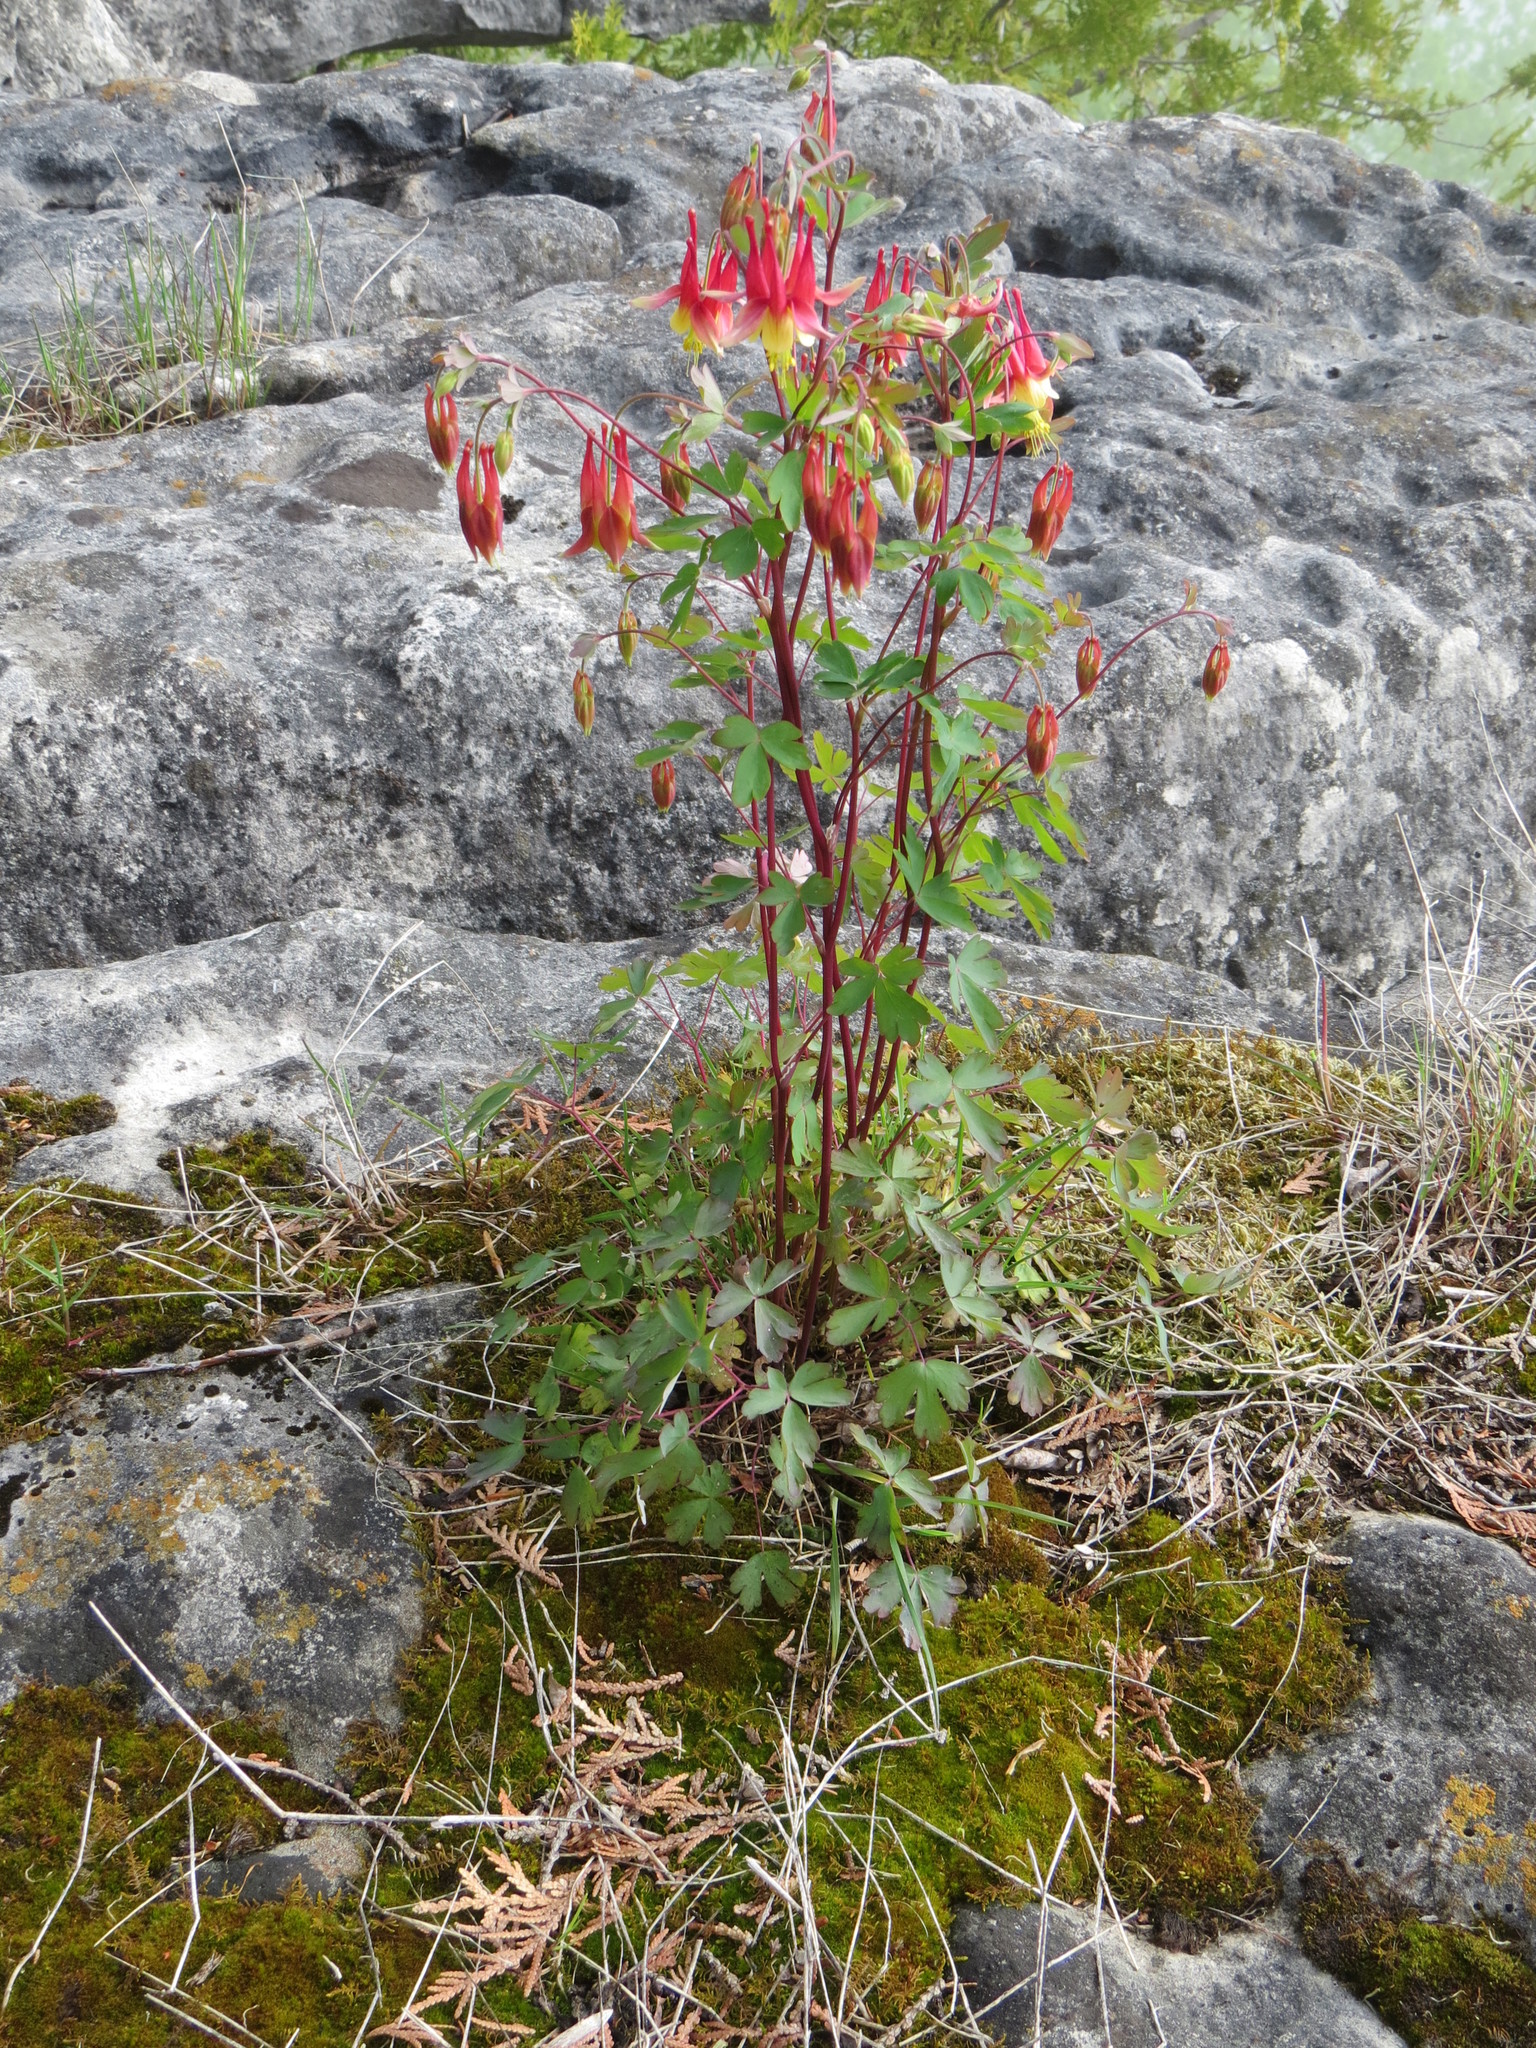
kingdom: Plantae
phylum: Tracheophyta
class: Magnoliopsida
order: Ranunculales
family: Ranunculaceae
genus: Aquilegia
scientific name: Aquilegia canadensis
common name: American columbine
